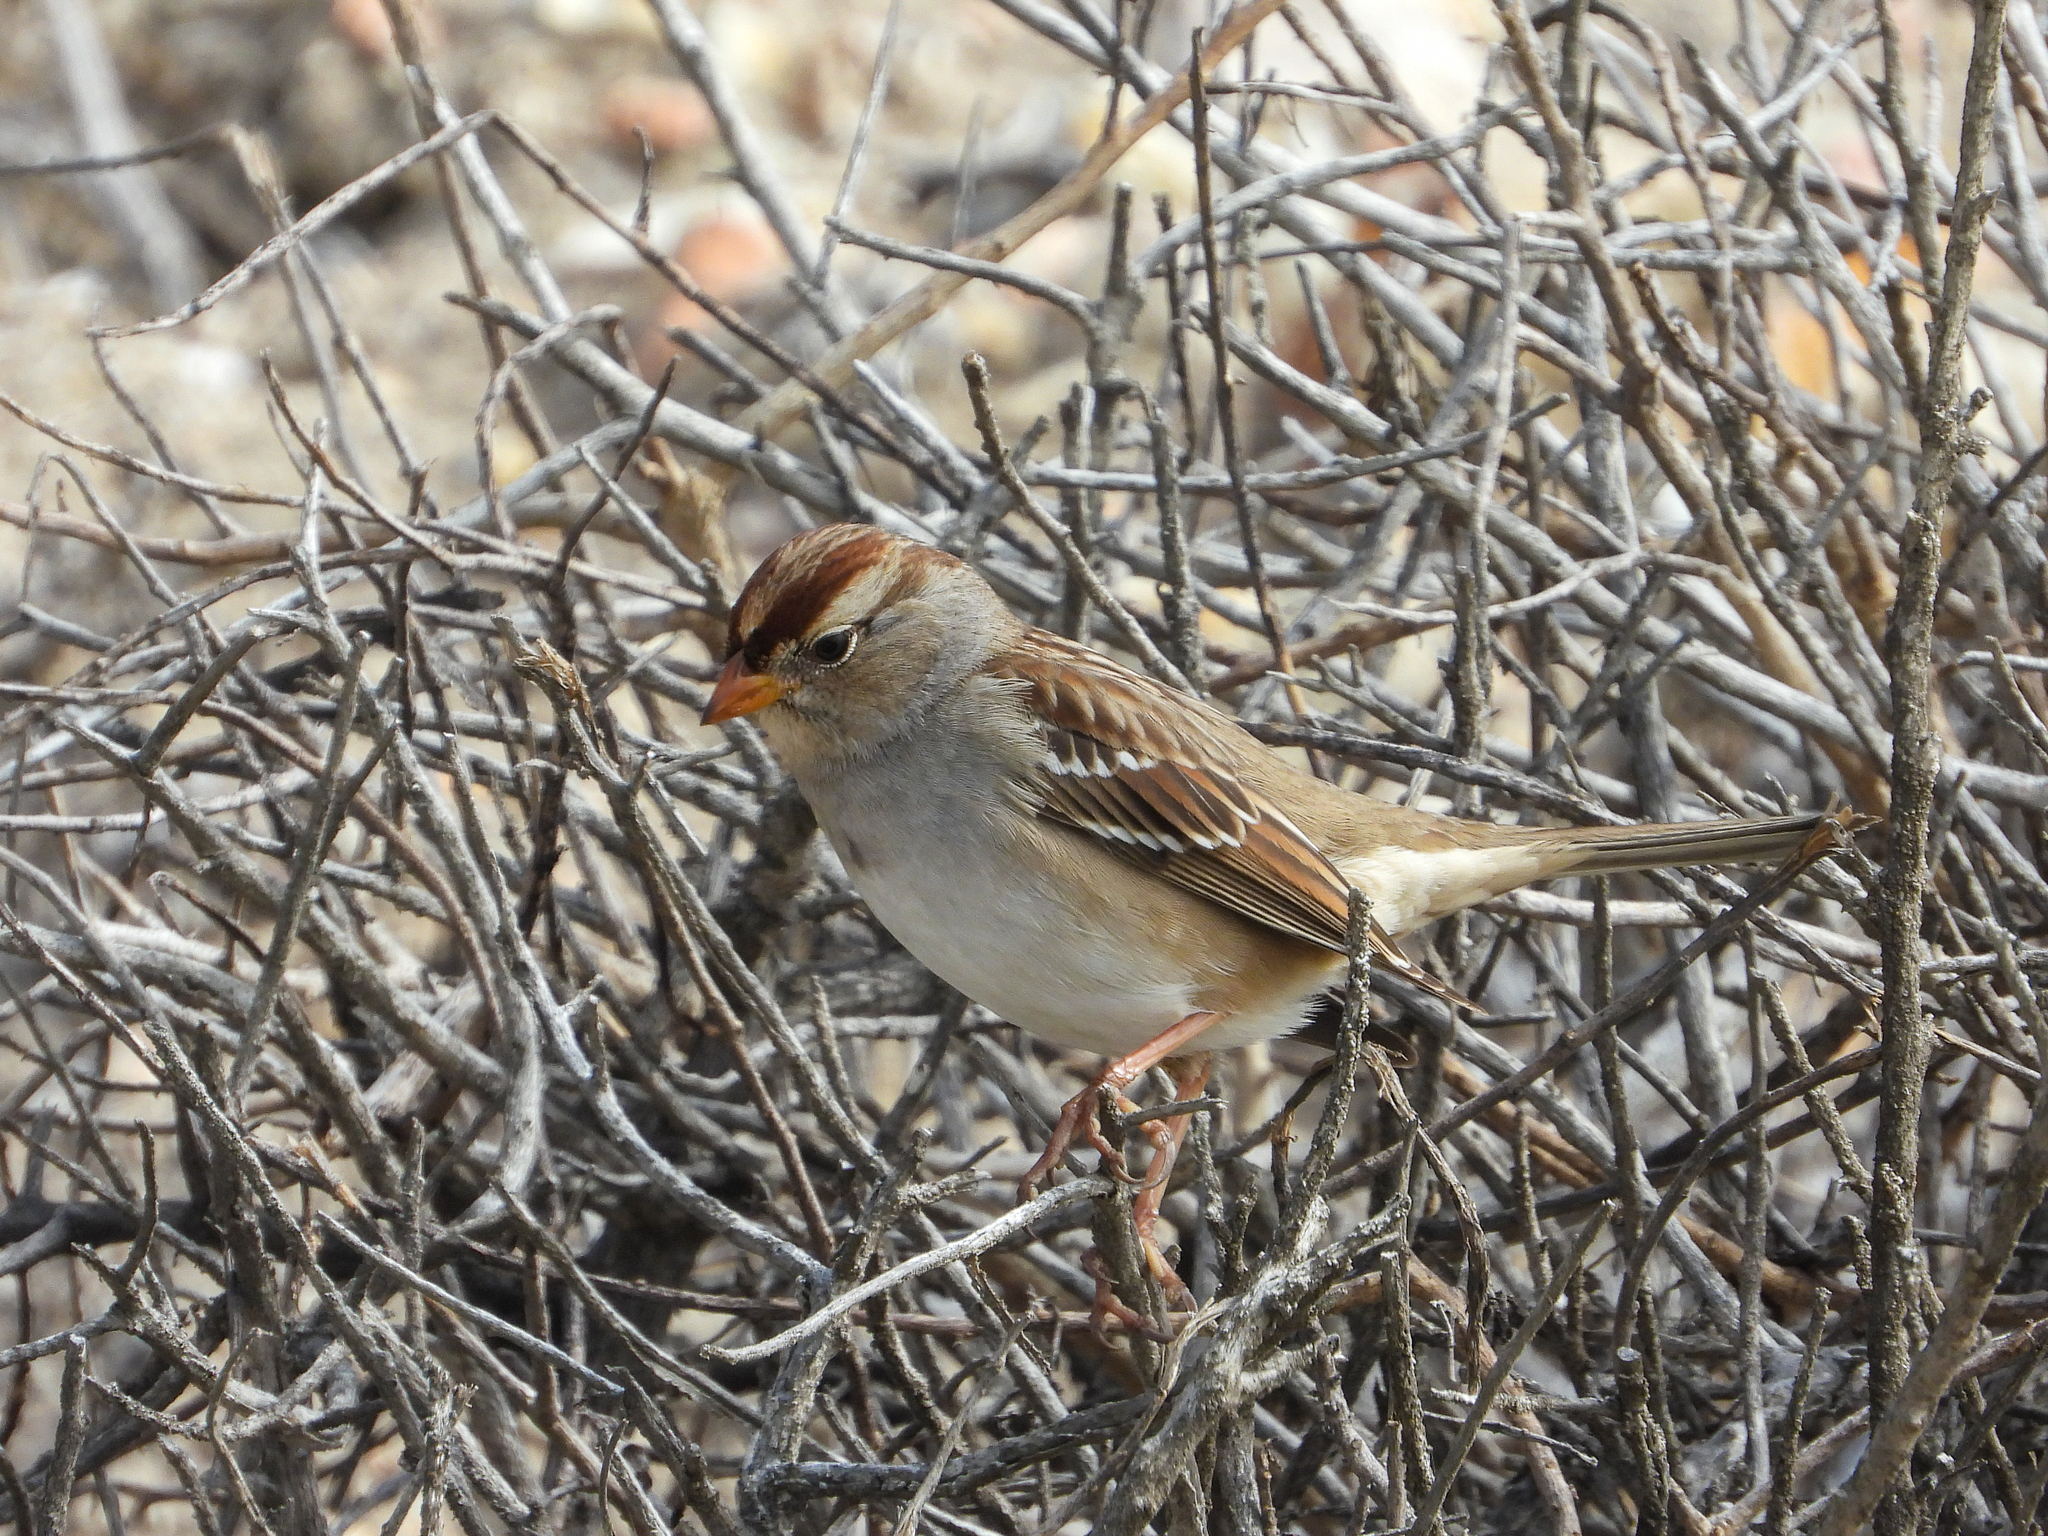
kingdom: Animalia
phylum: Chordata
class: Aves
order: Passeriformes
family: Passerellidae
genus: Zonotrichia
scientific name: Zonotrichia leucophrys
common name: White-crowned sparrow
